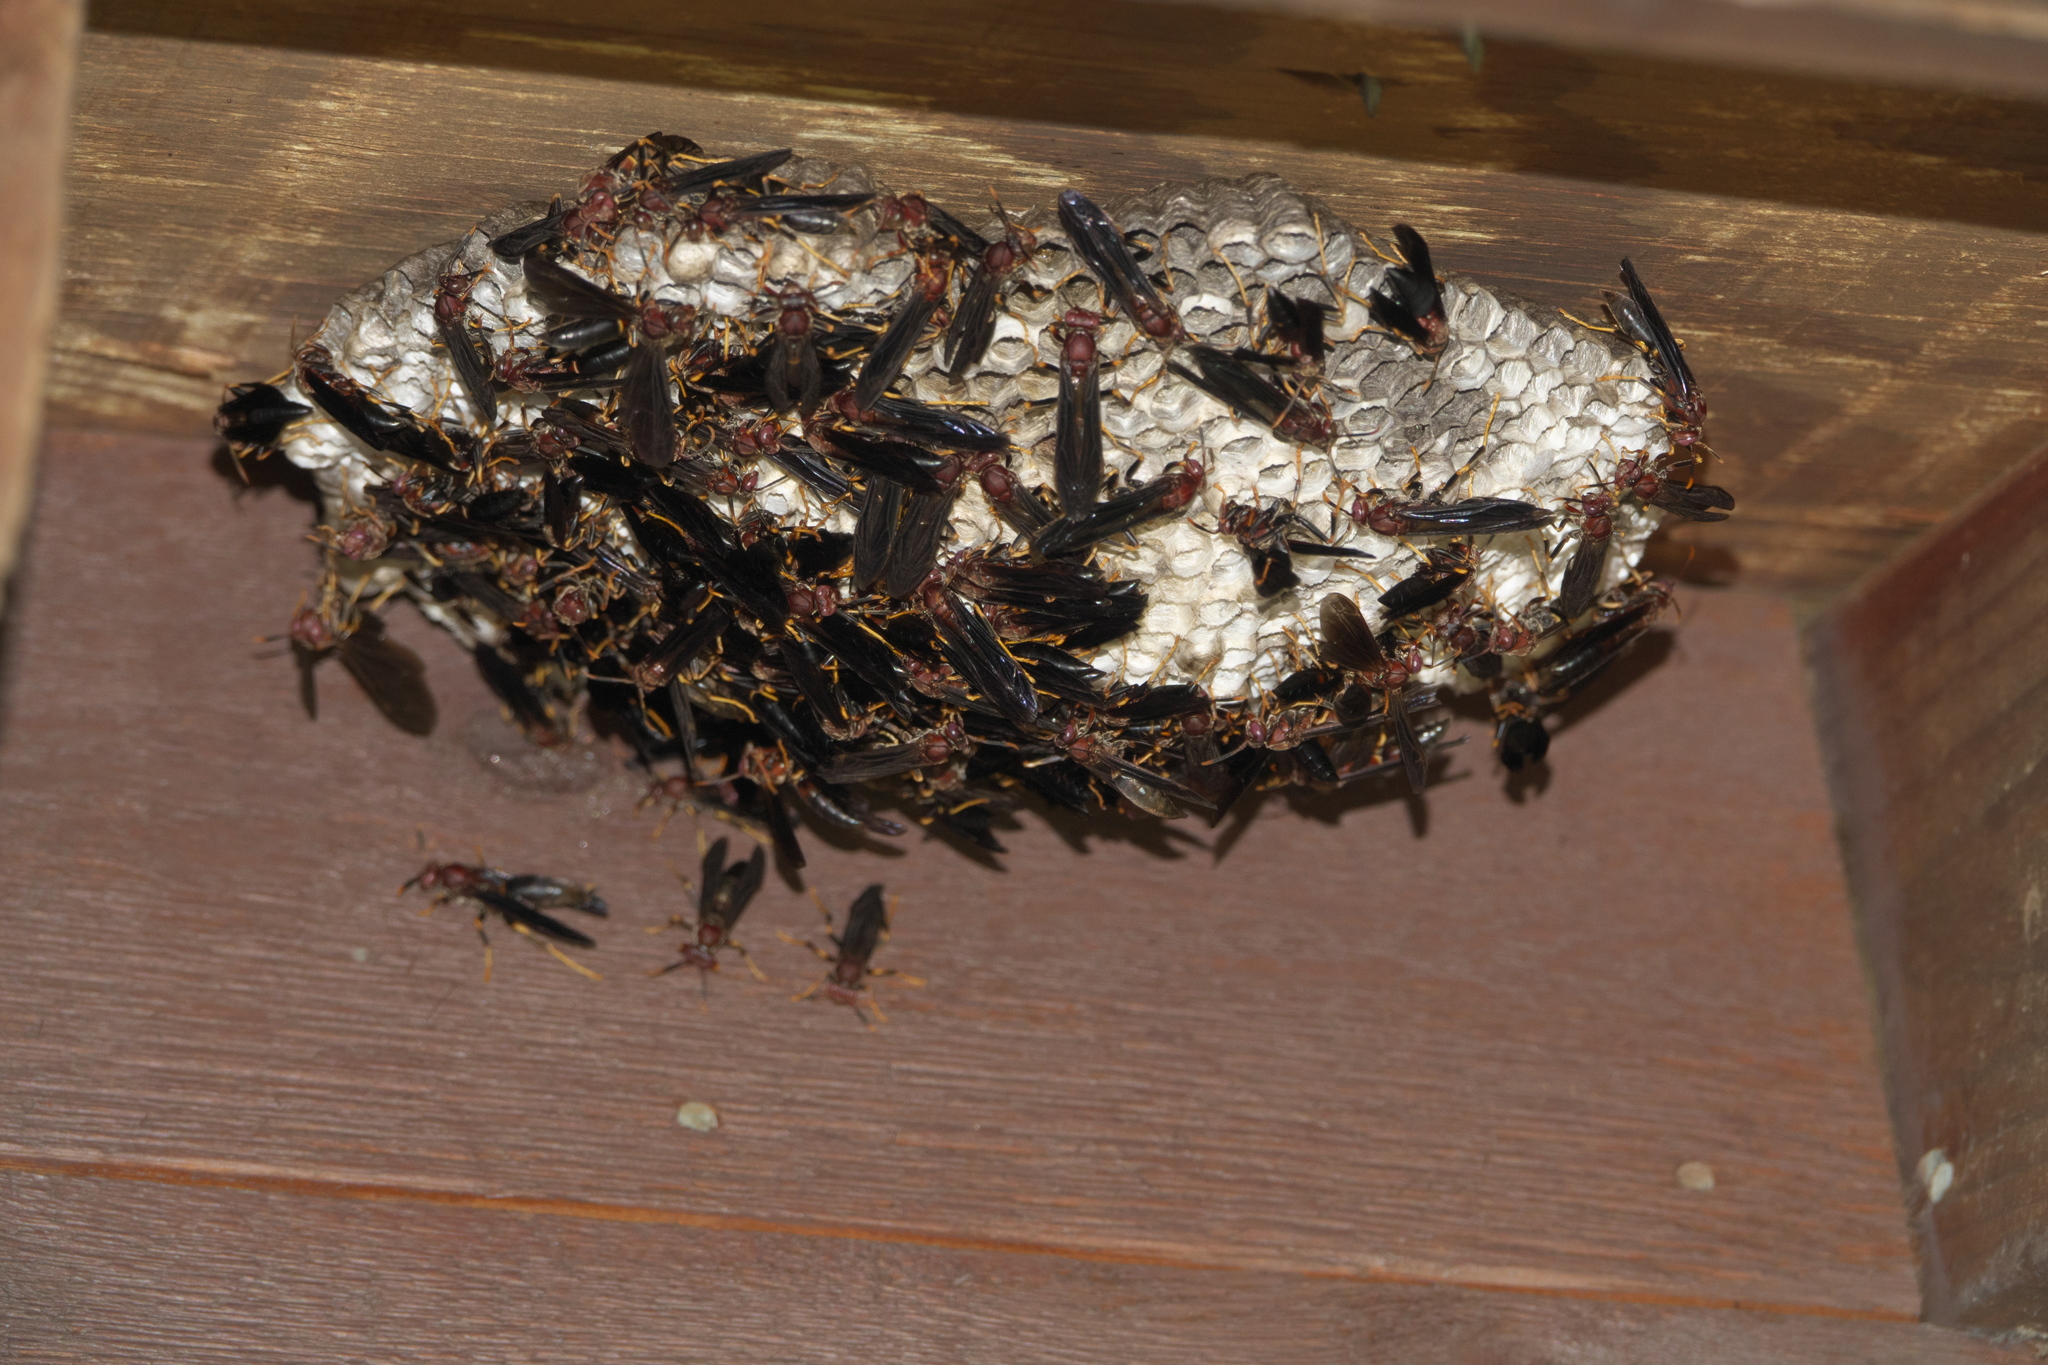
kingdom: Animalia
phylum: Arthropoda
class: Insecta
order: Hymenoptera
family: Eumenidae
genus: Polistes
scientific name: Polistes annularis
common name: Ringed paper wasp
